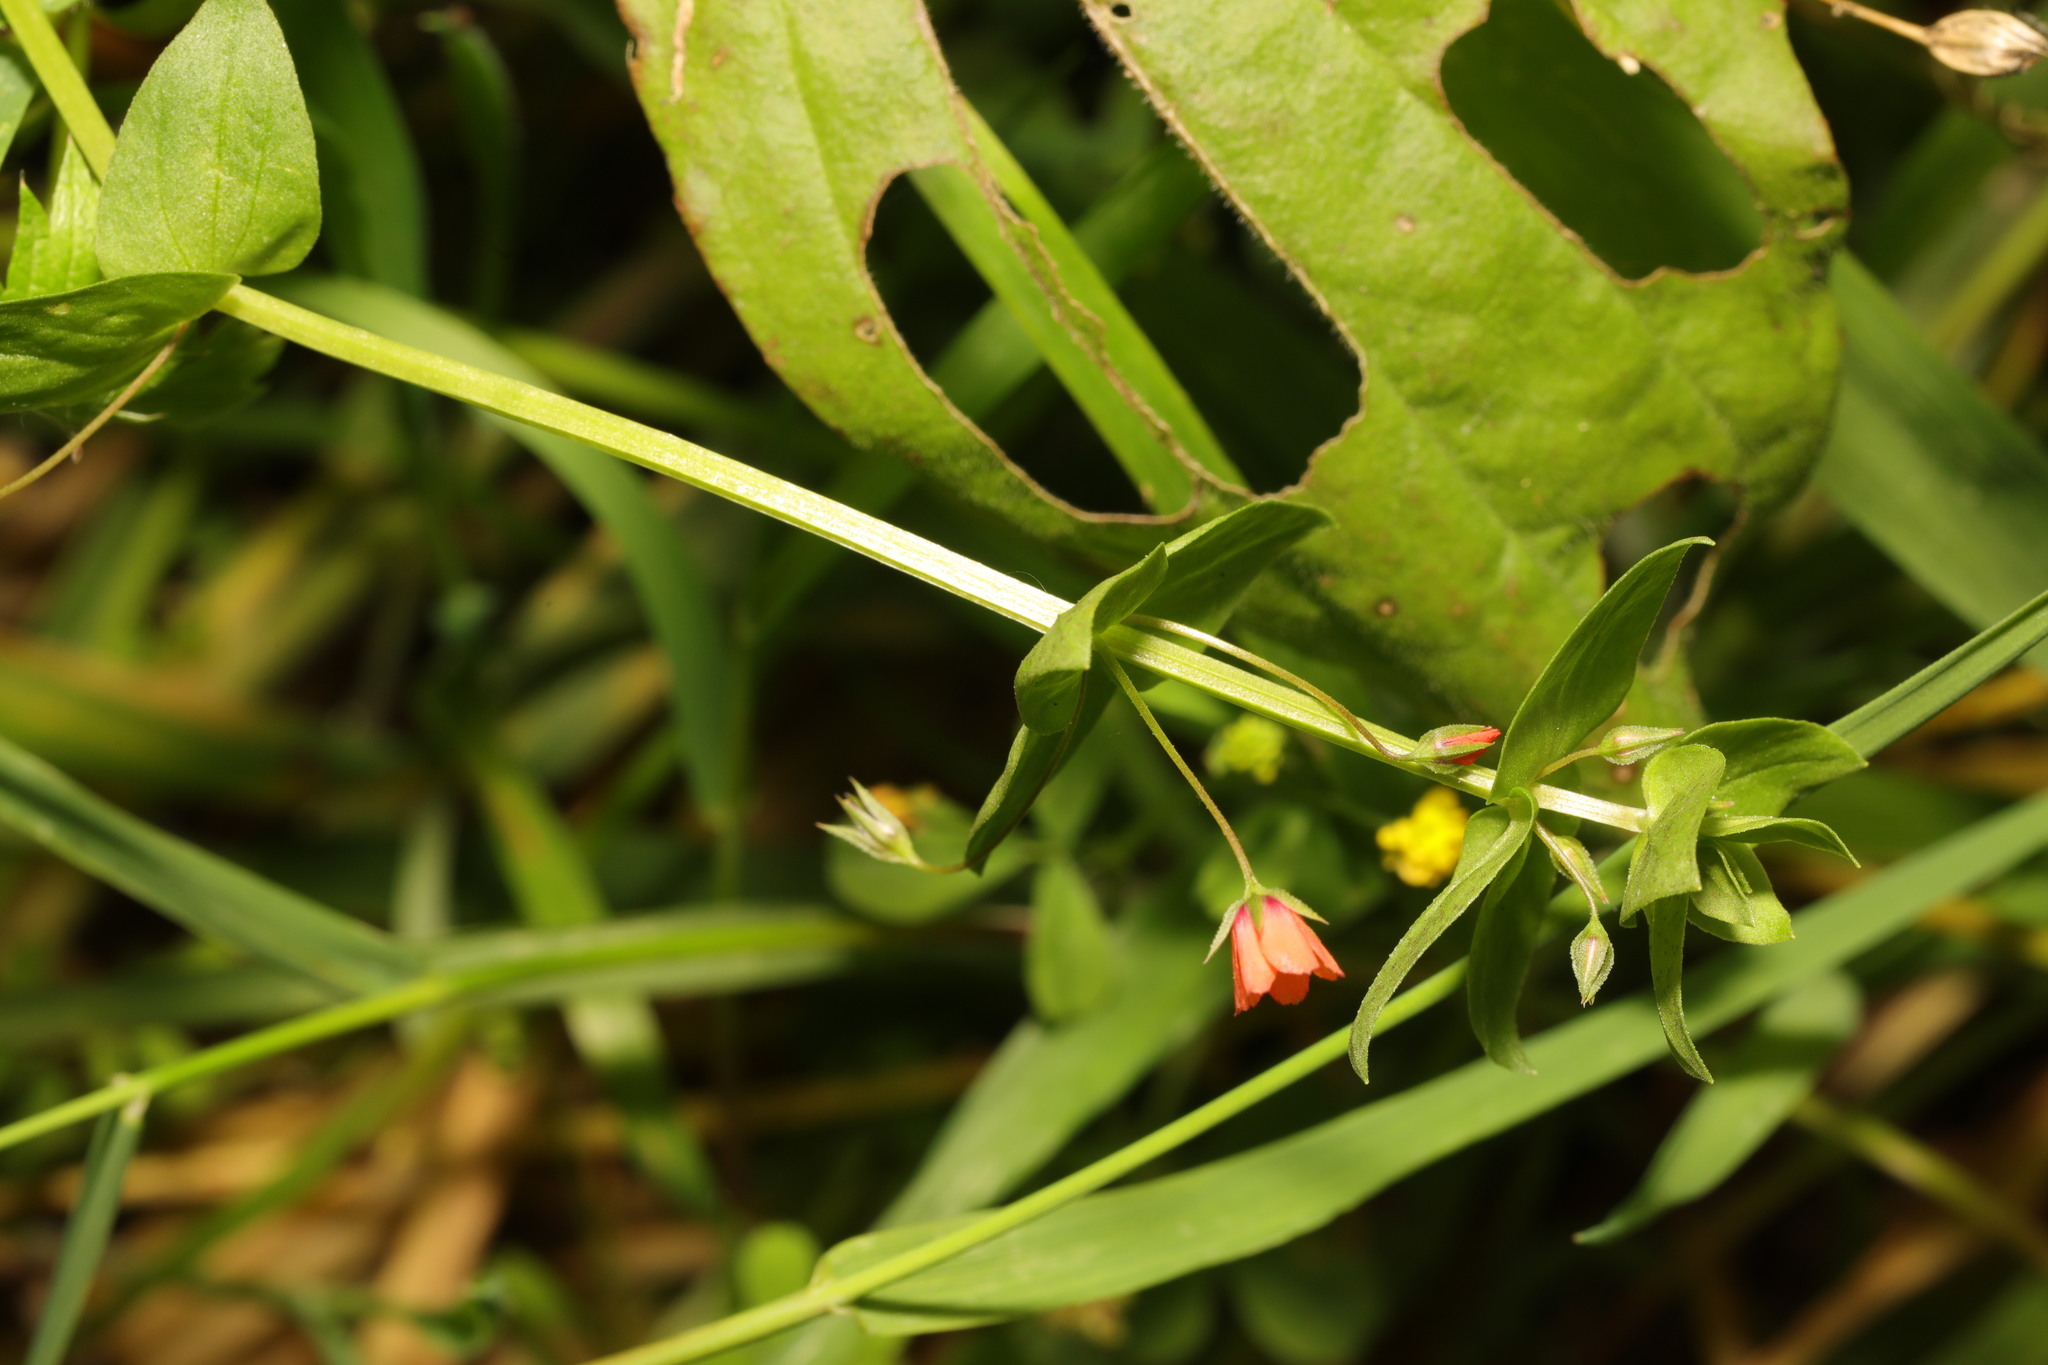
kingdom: Plantae
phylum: Tracheophyta
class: Magnoliopsida
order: Ericales
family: Primulaceae
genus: Lysimachia
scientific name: Lysimachia arvensis
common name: Scarlet pimpernel
